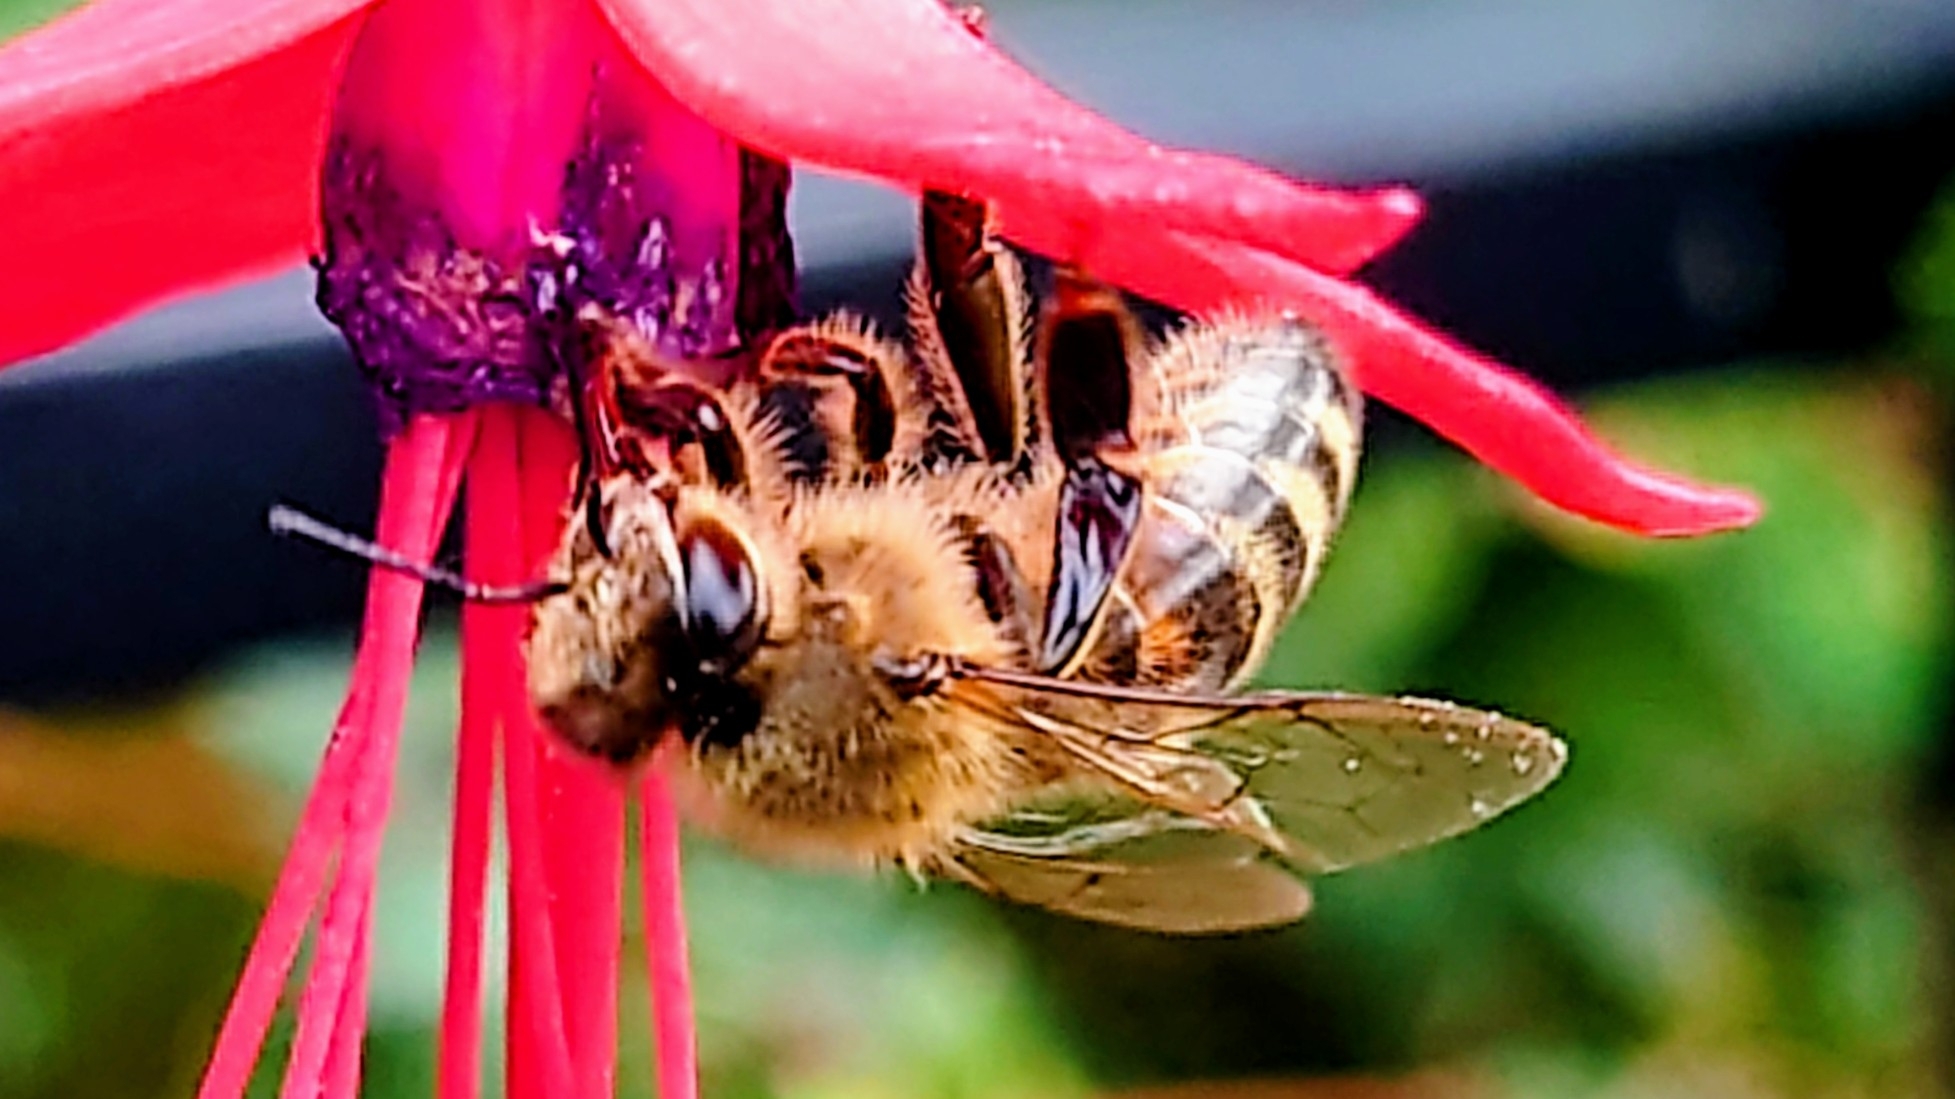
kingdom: Animalia
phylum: Arthropoda
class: Insecta
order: Hymenoptera
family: Apidae
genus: Apis
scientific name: Apis mellifera
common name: Honey bee
